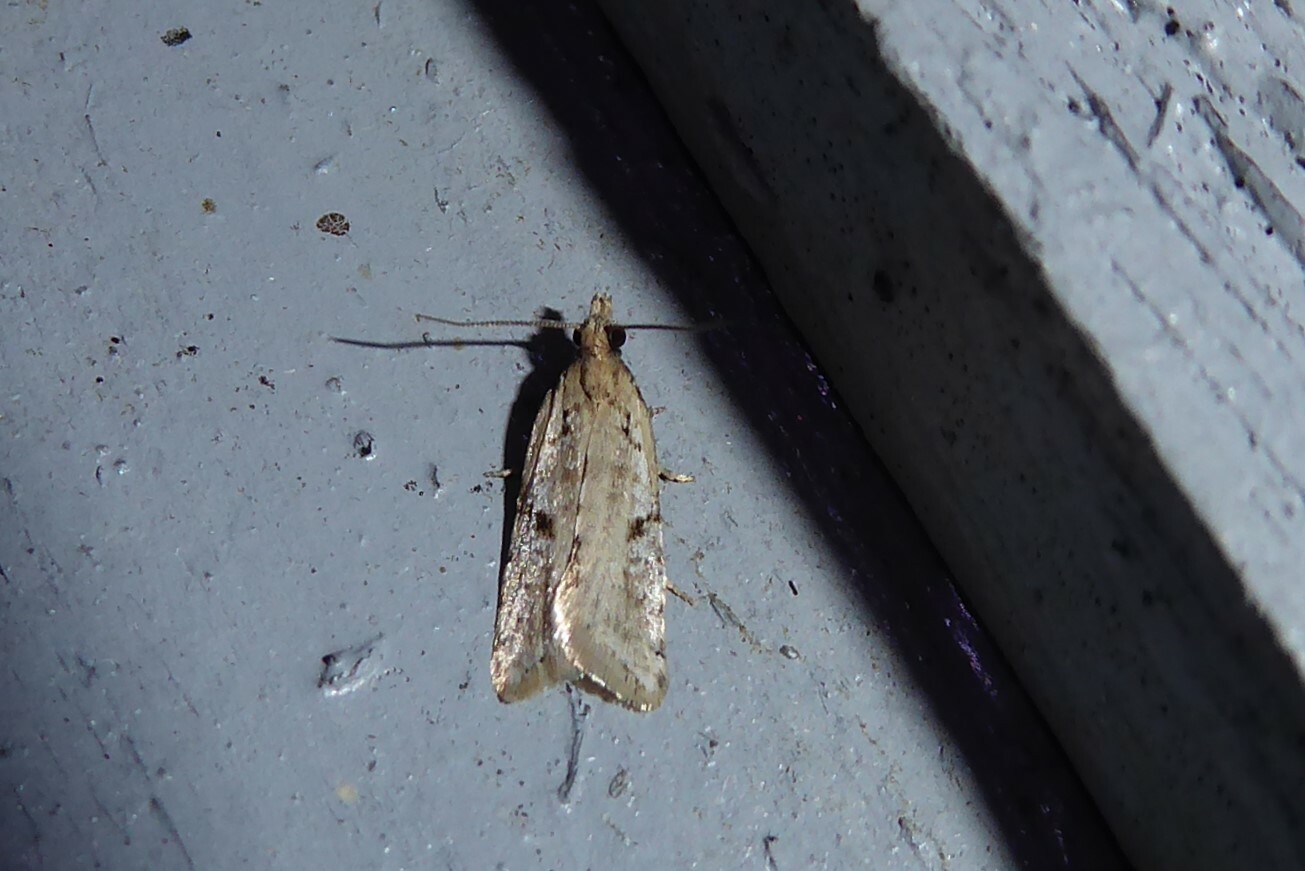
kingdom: Animalia
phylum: Arthropoda
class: Insecta
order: Lepidoptera
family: Tortricidae
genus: Capua
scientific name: Capua semiferana
